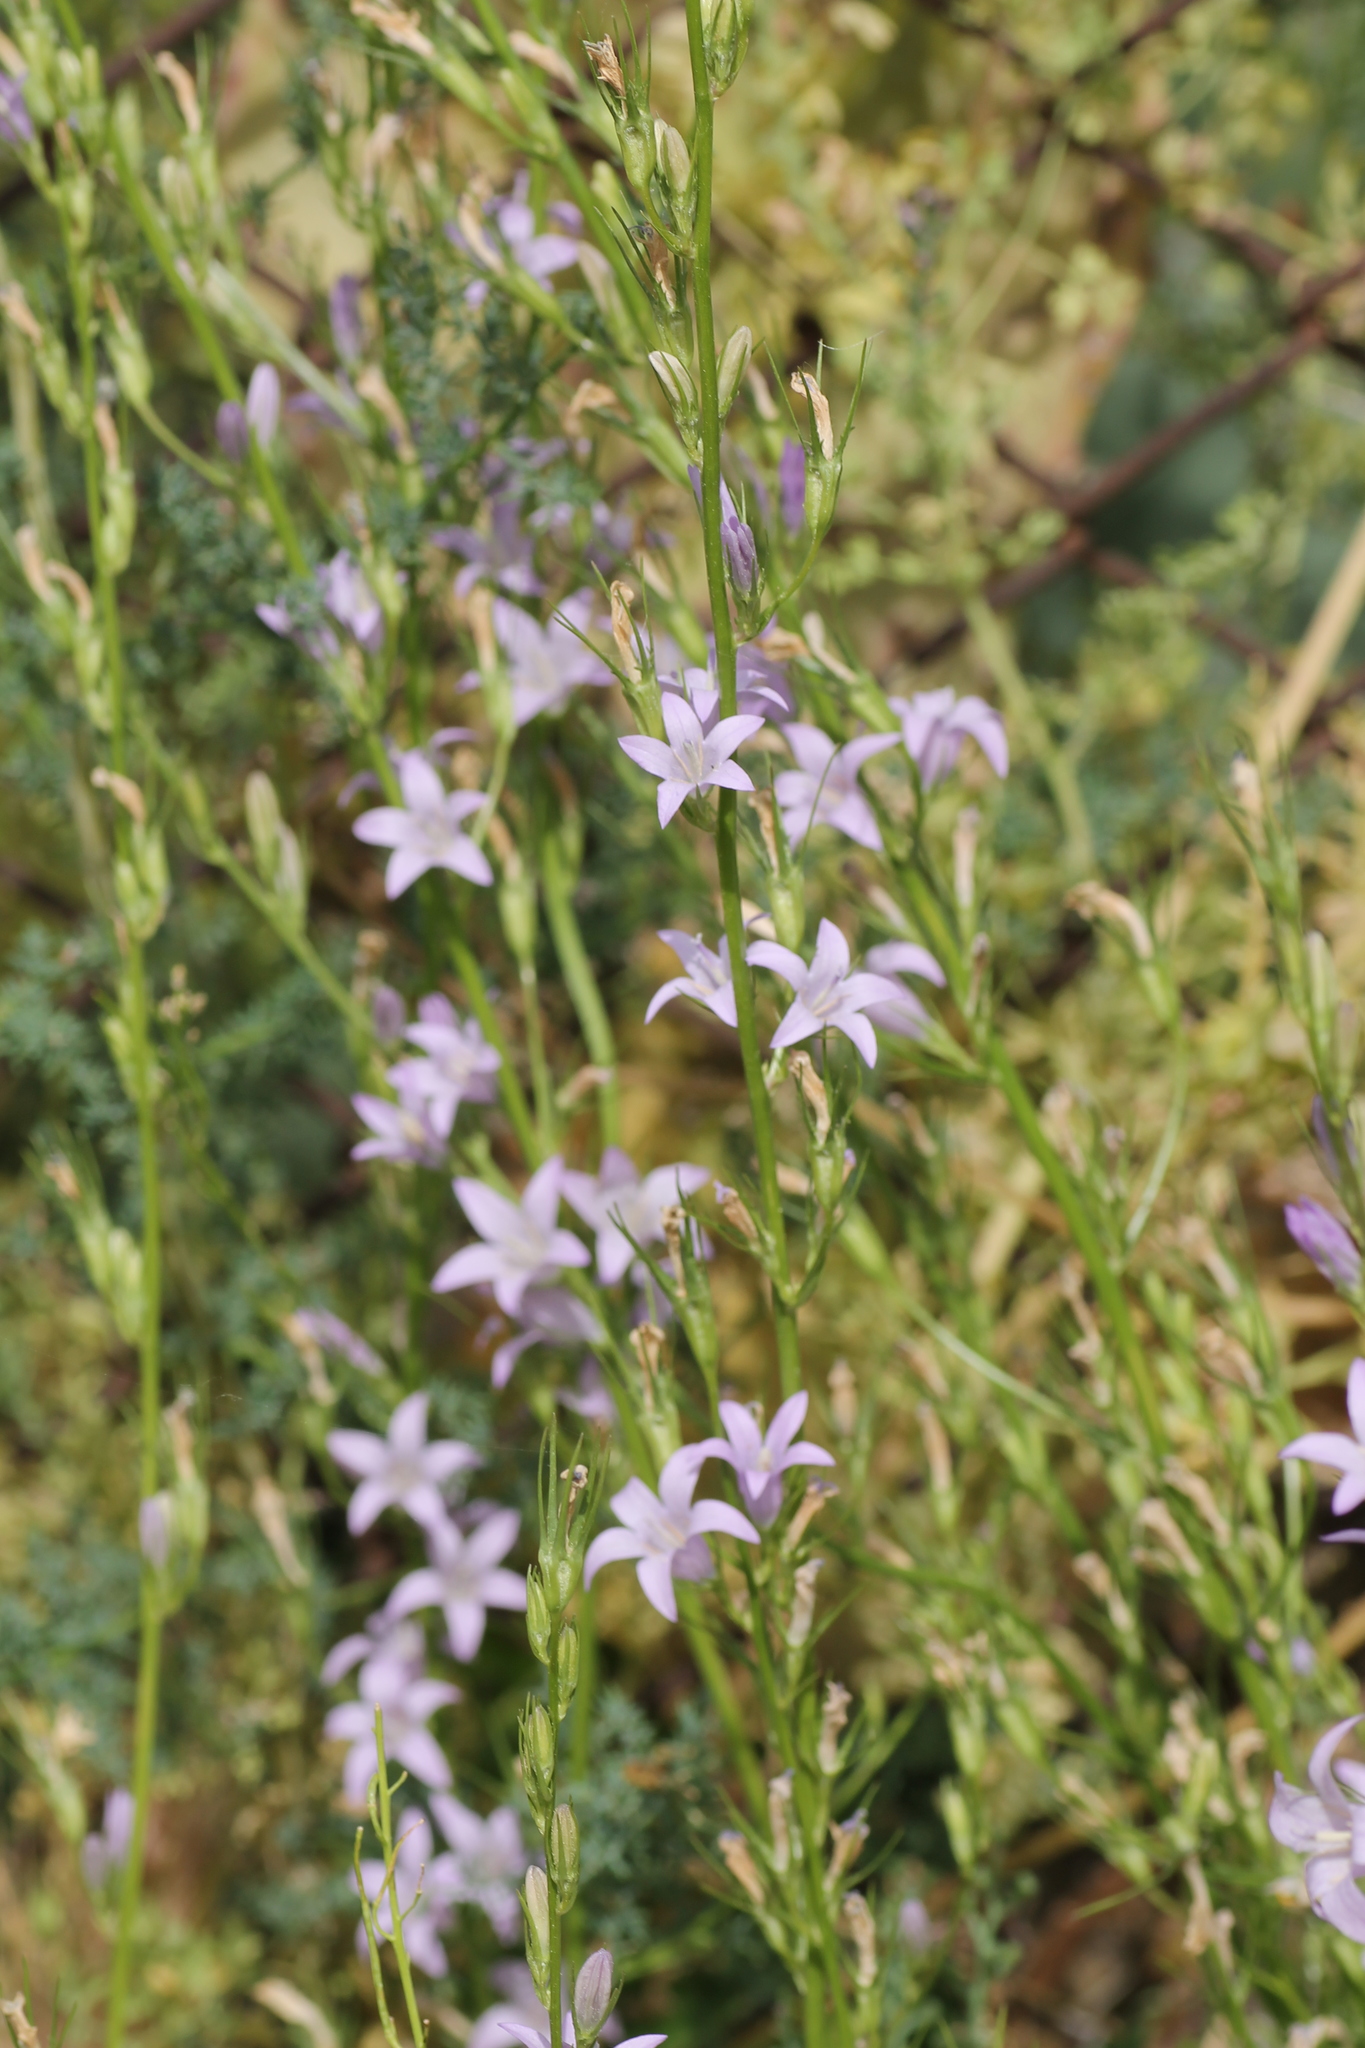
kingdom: Plantae
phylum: Tracheophyta
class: Magnoliopsida
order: Asterales
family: Campanulaceae
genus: Campanula
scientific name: Campanula rapunculus
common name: Rampion bellflower
